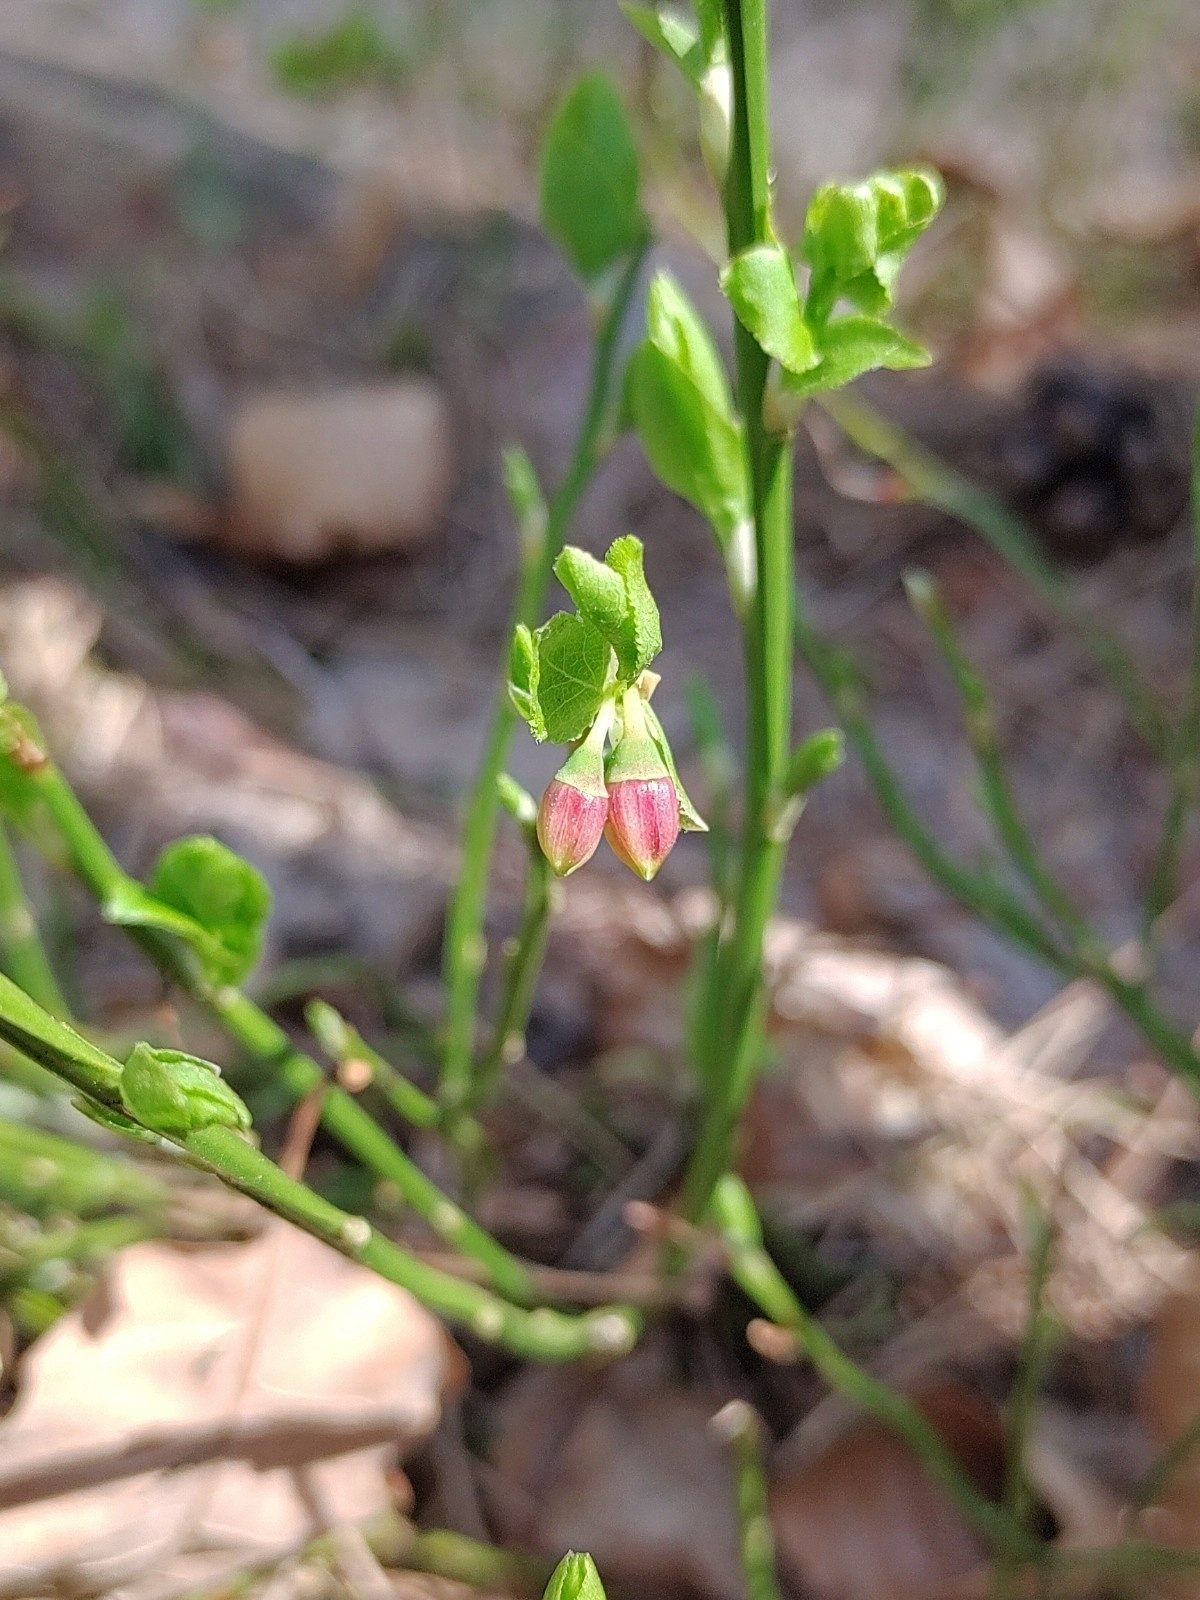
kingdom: Plantae
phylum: Tracheophyta
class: Magnoliopsida
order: Ericales
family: Ericaceae
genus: Vaccinium
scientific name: Vaccinium myrtillus
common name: Bilberry
